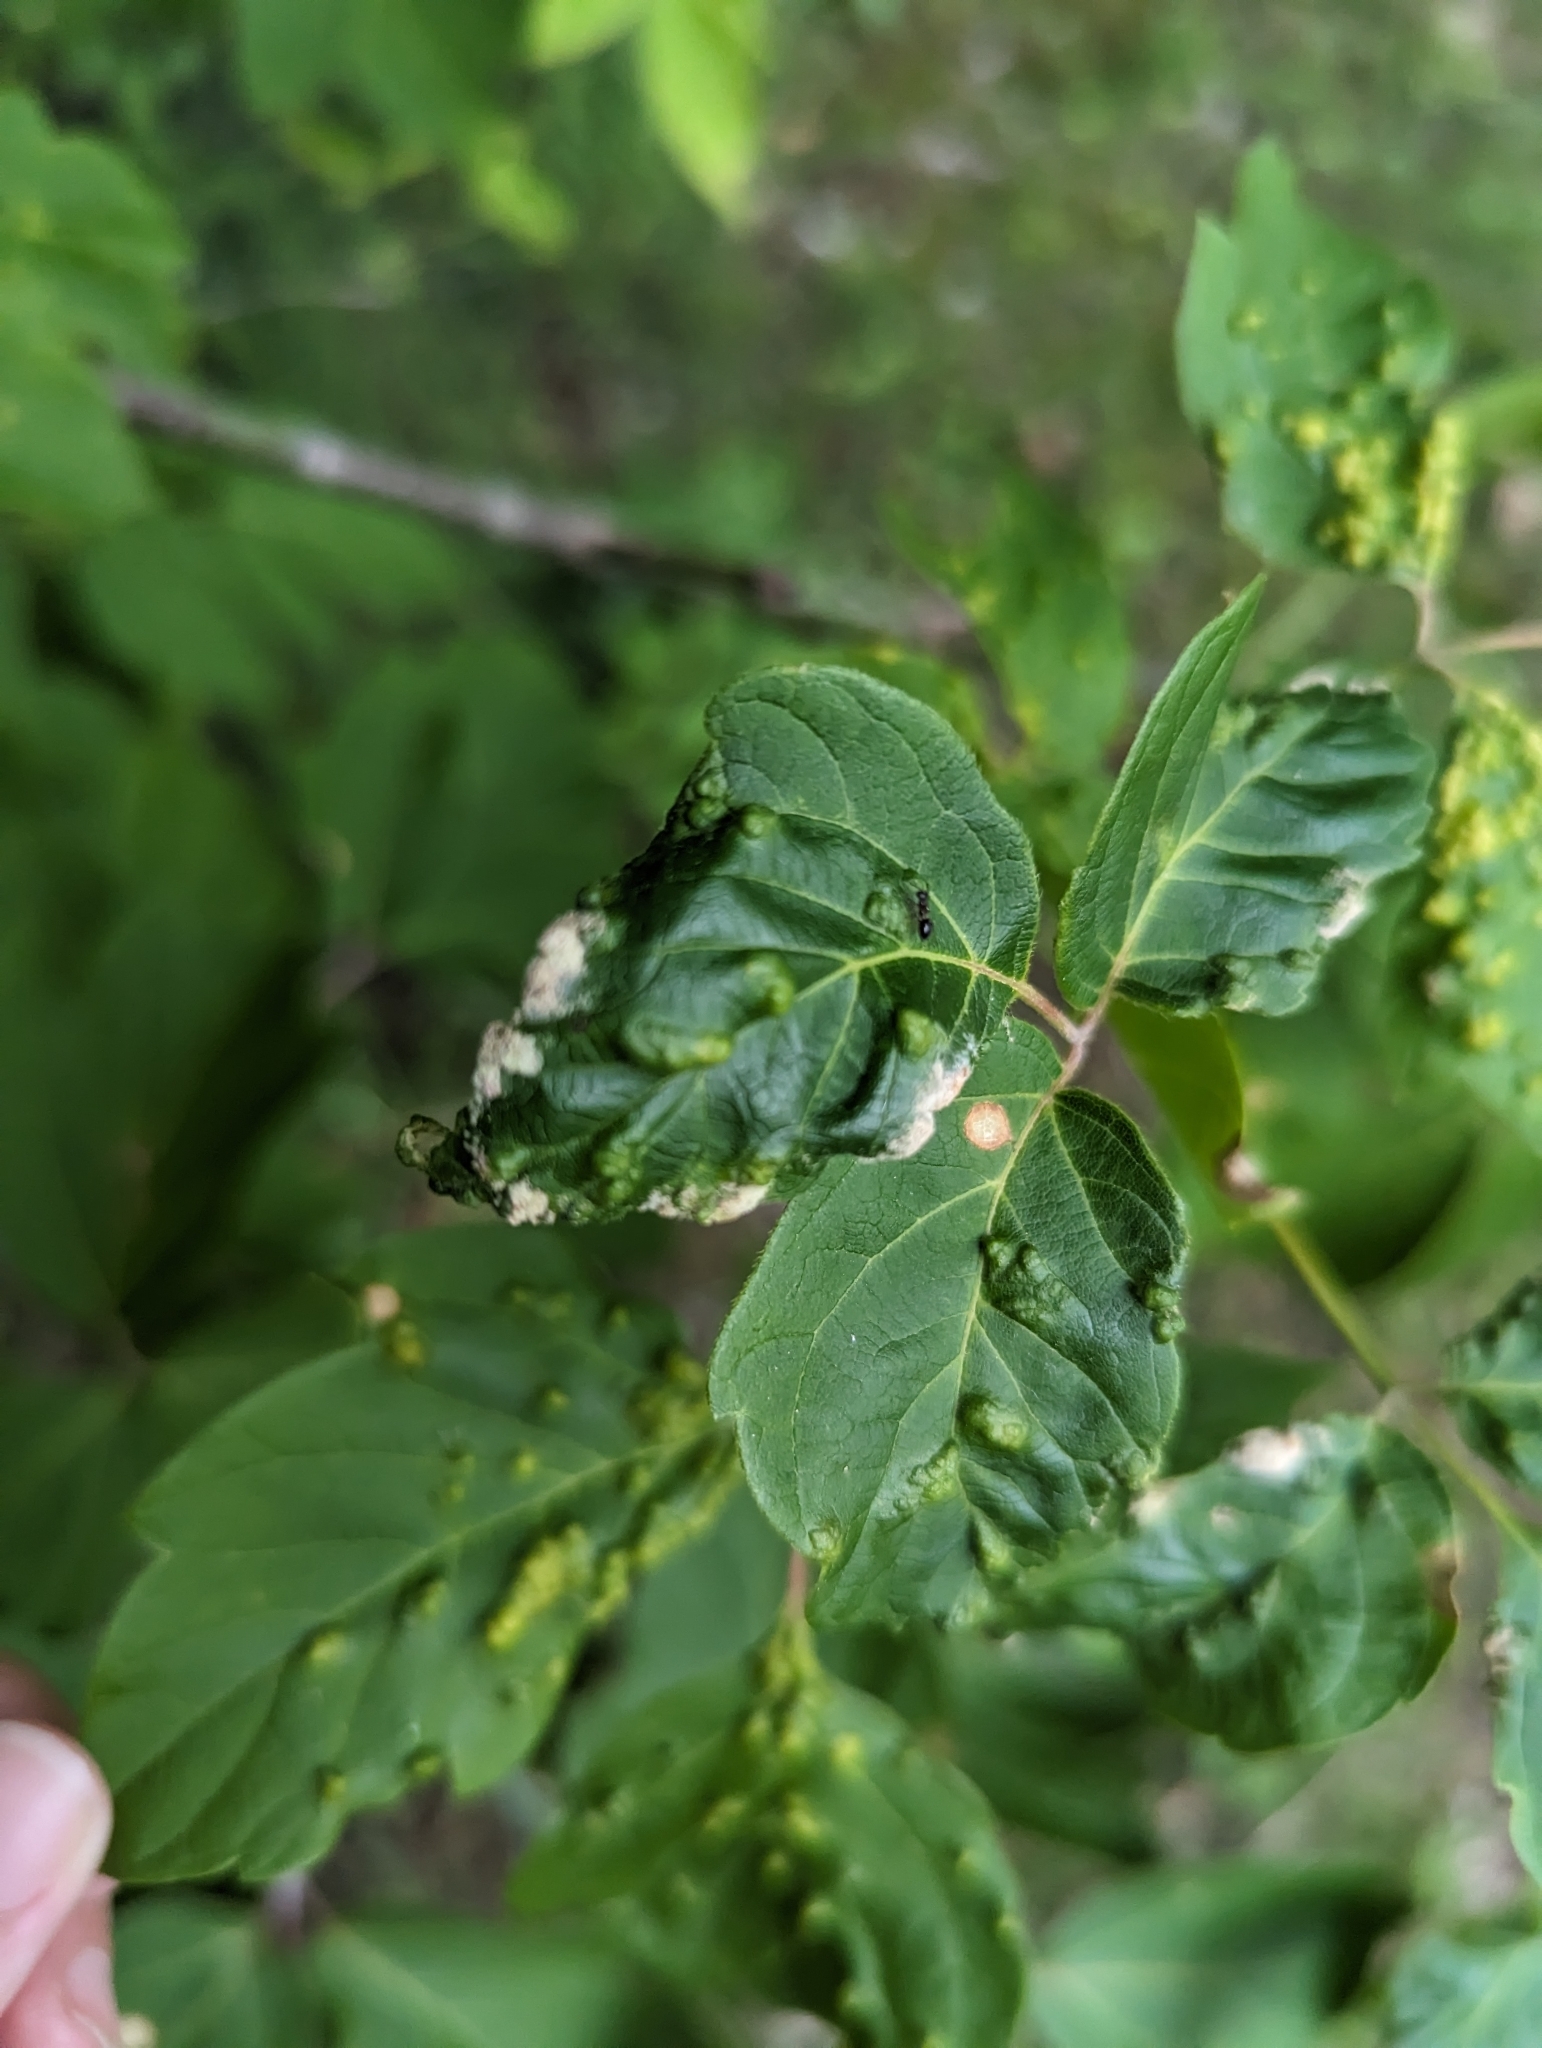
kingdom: Animalia
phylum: Arthropoda
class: Arachnida
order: Trombidiformes
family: Eriophyidae
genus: Aceria
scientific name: Aceria
